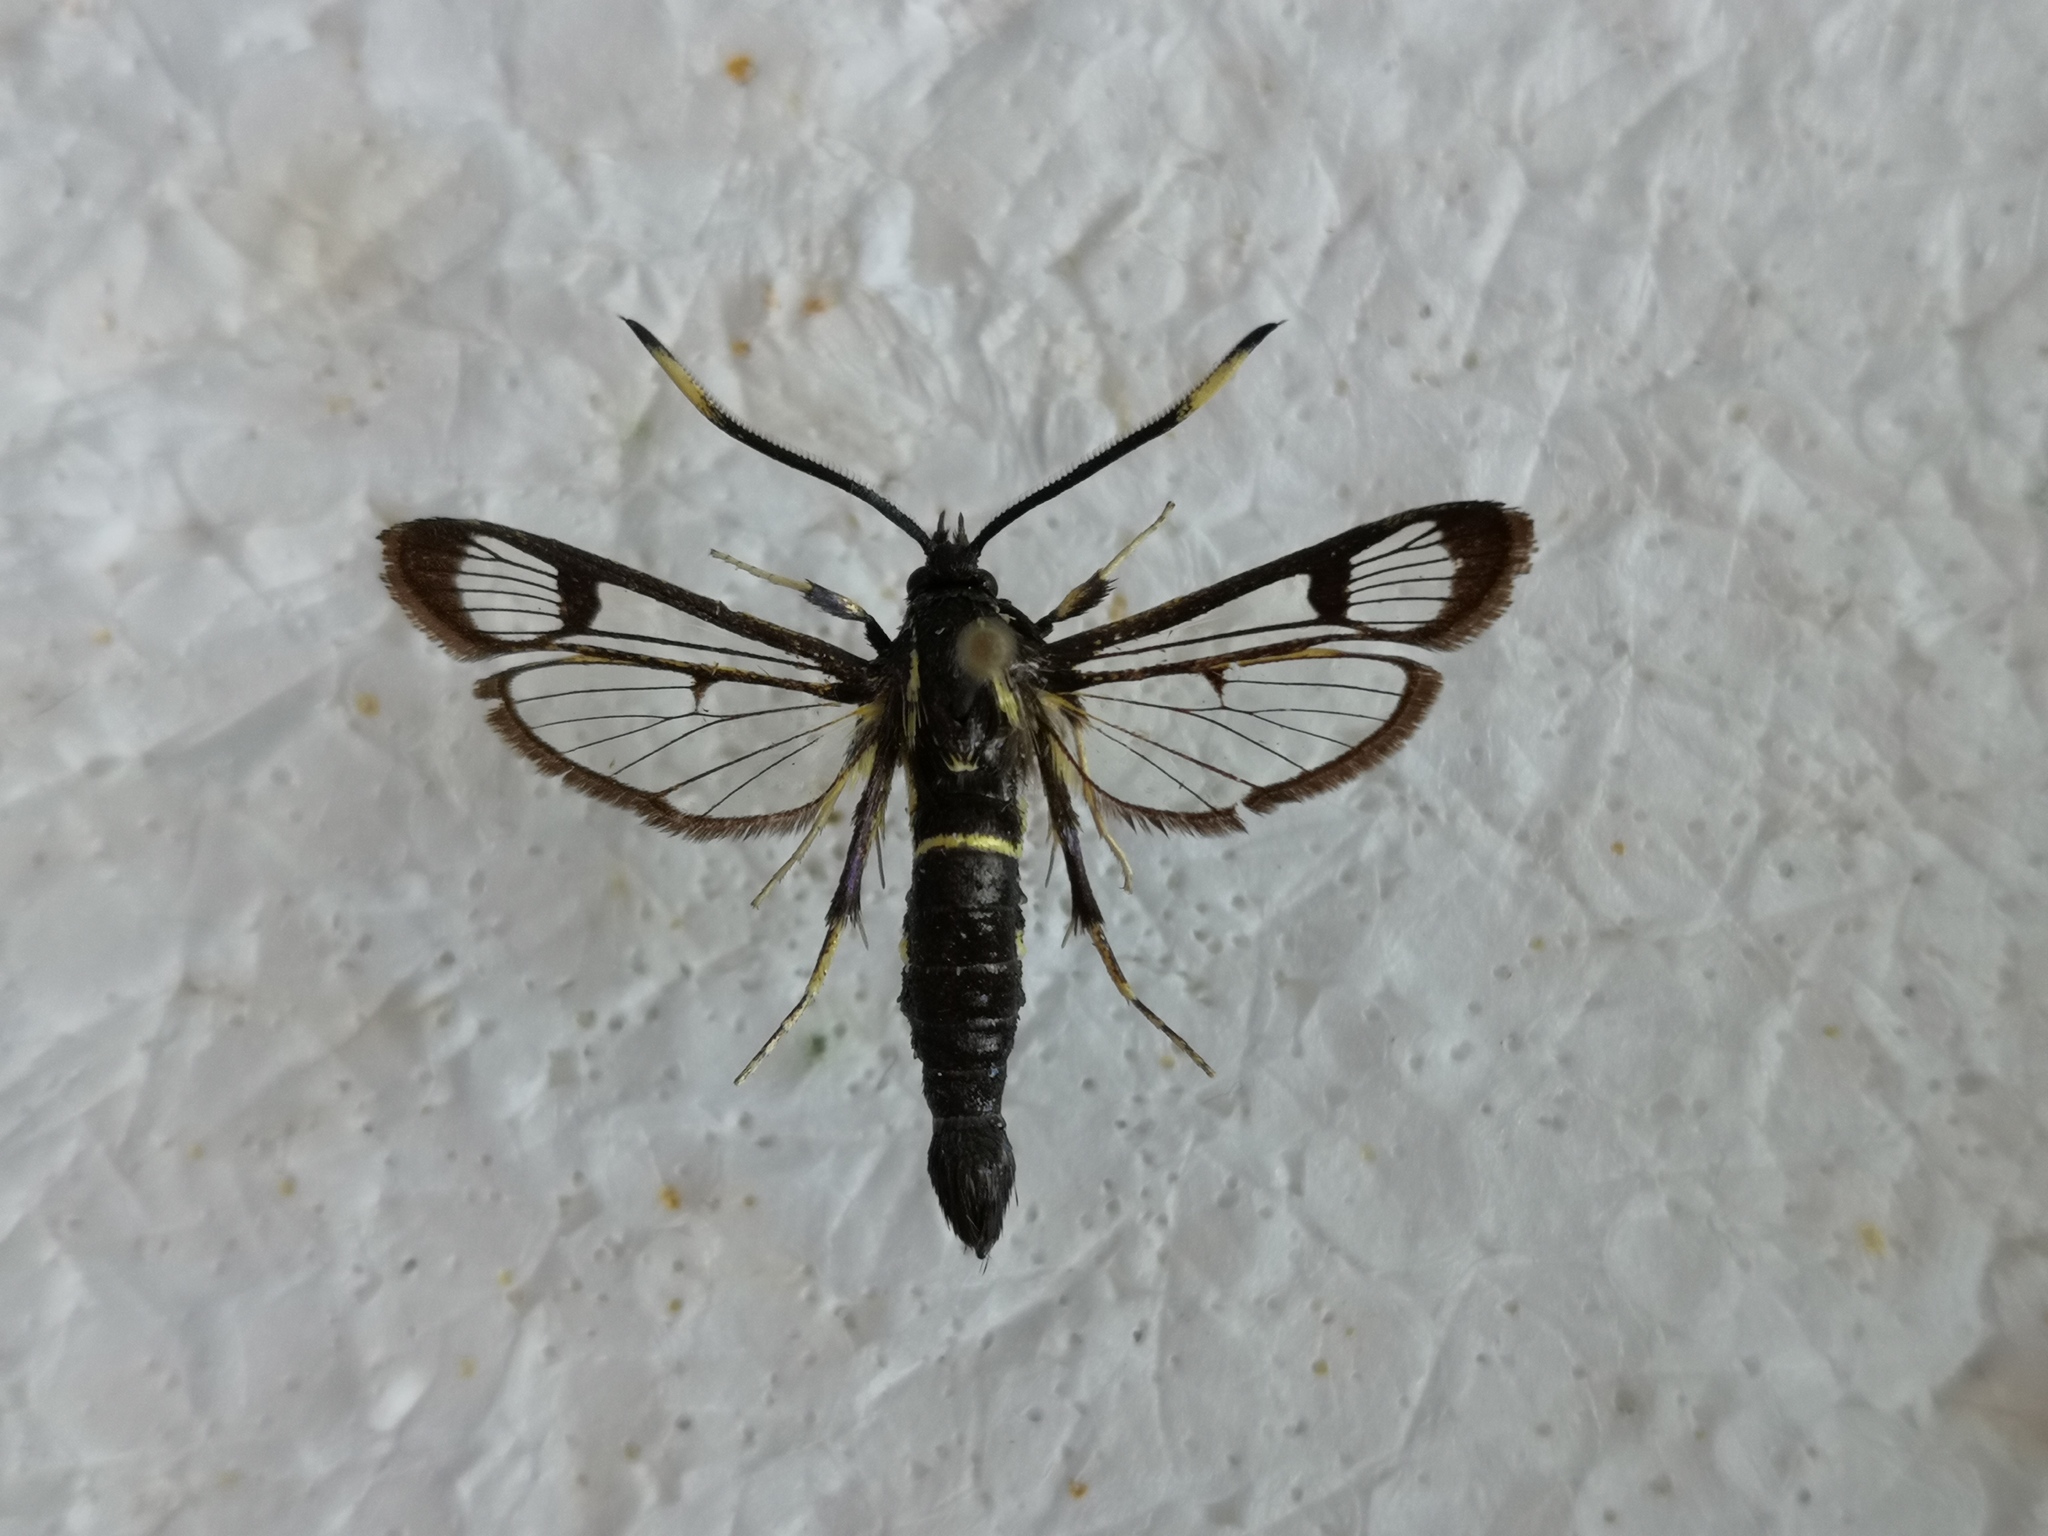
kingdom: Animalia
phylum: Arthropoda
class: Insecta
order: Lepidoptera
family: Sesiidae
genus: Synanthedon
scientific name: Synanthedon spheciformis
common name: White-barred clearwing
